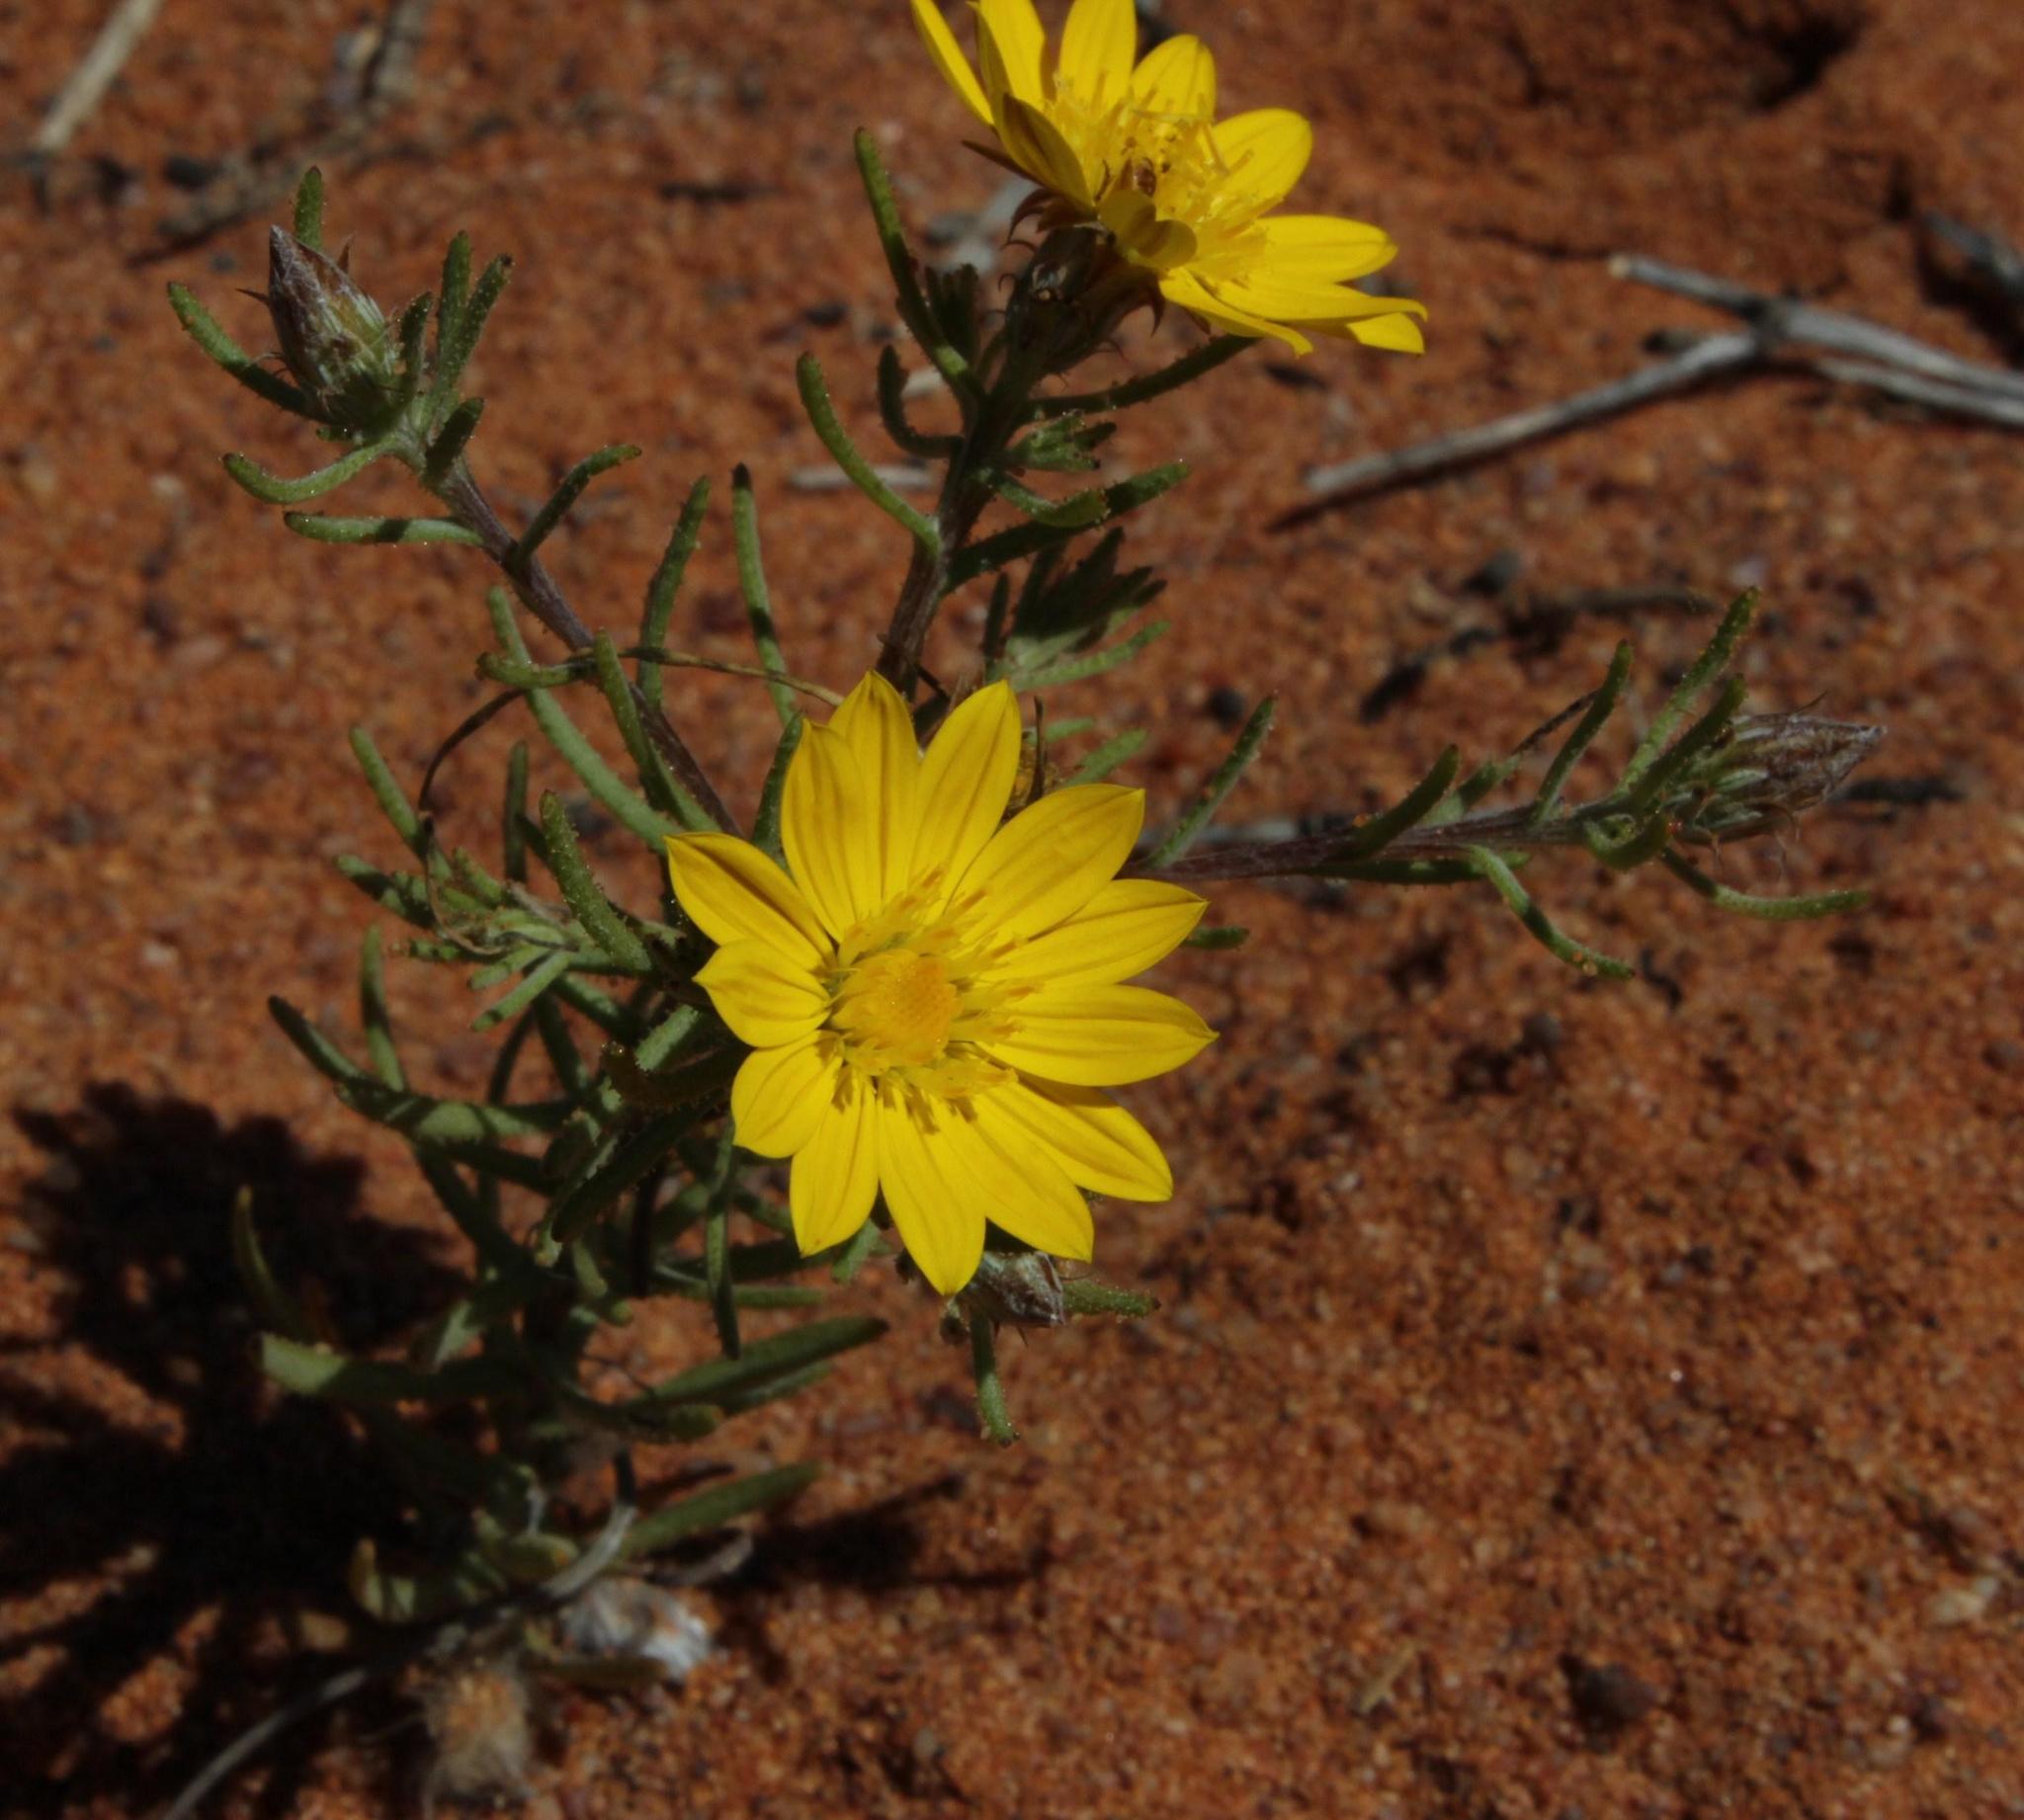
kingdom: Plantae
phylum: Tracheophyta
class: Magnoliopsida
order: Asterales
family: Asteraceae
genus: Rhynchopsidium
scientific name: Rhynchopsidium pumilum
